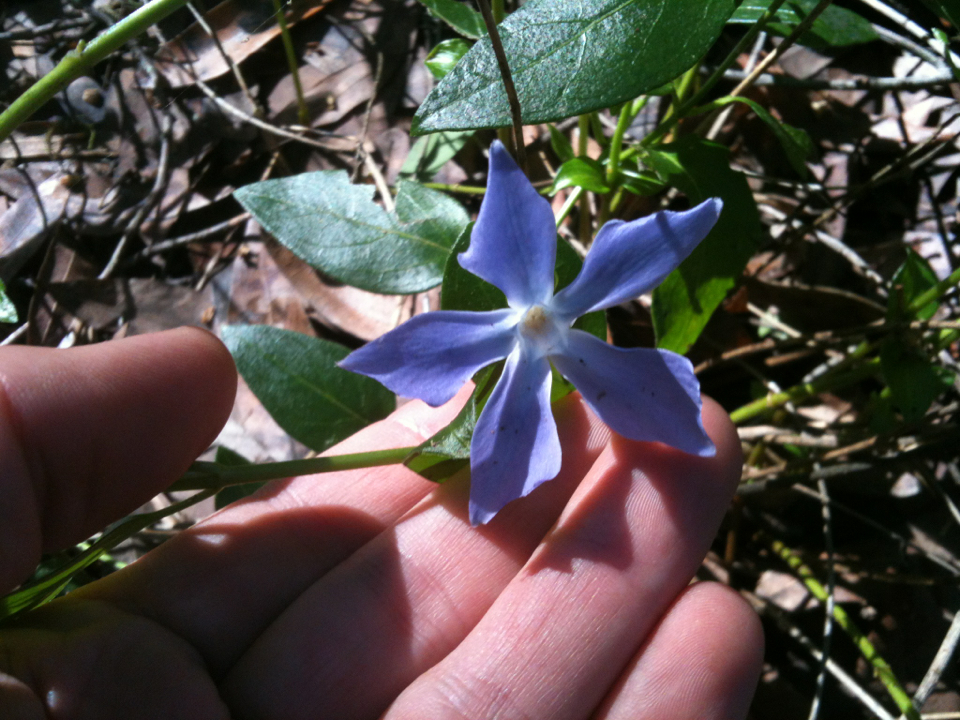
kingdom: Plantae
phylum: Tracheophyta
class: Magnoliopsida
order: Gentianales
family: Apocynaceae
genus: Vinca
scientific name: Vinca major
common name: Greater periwinkle
